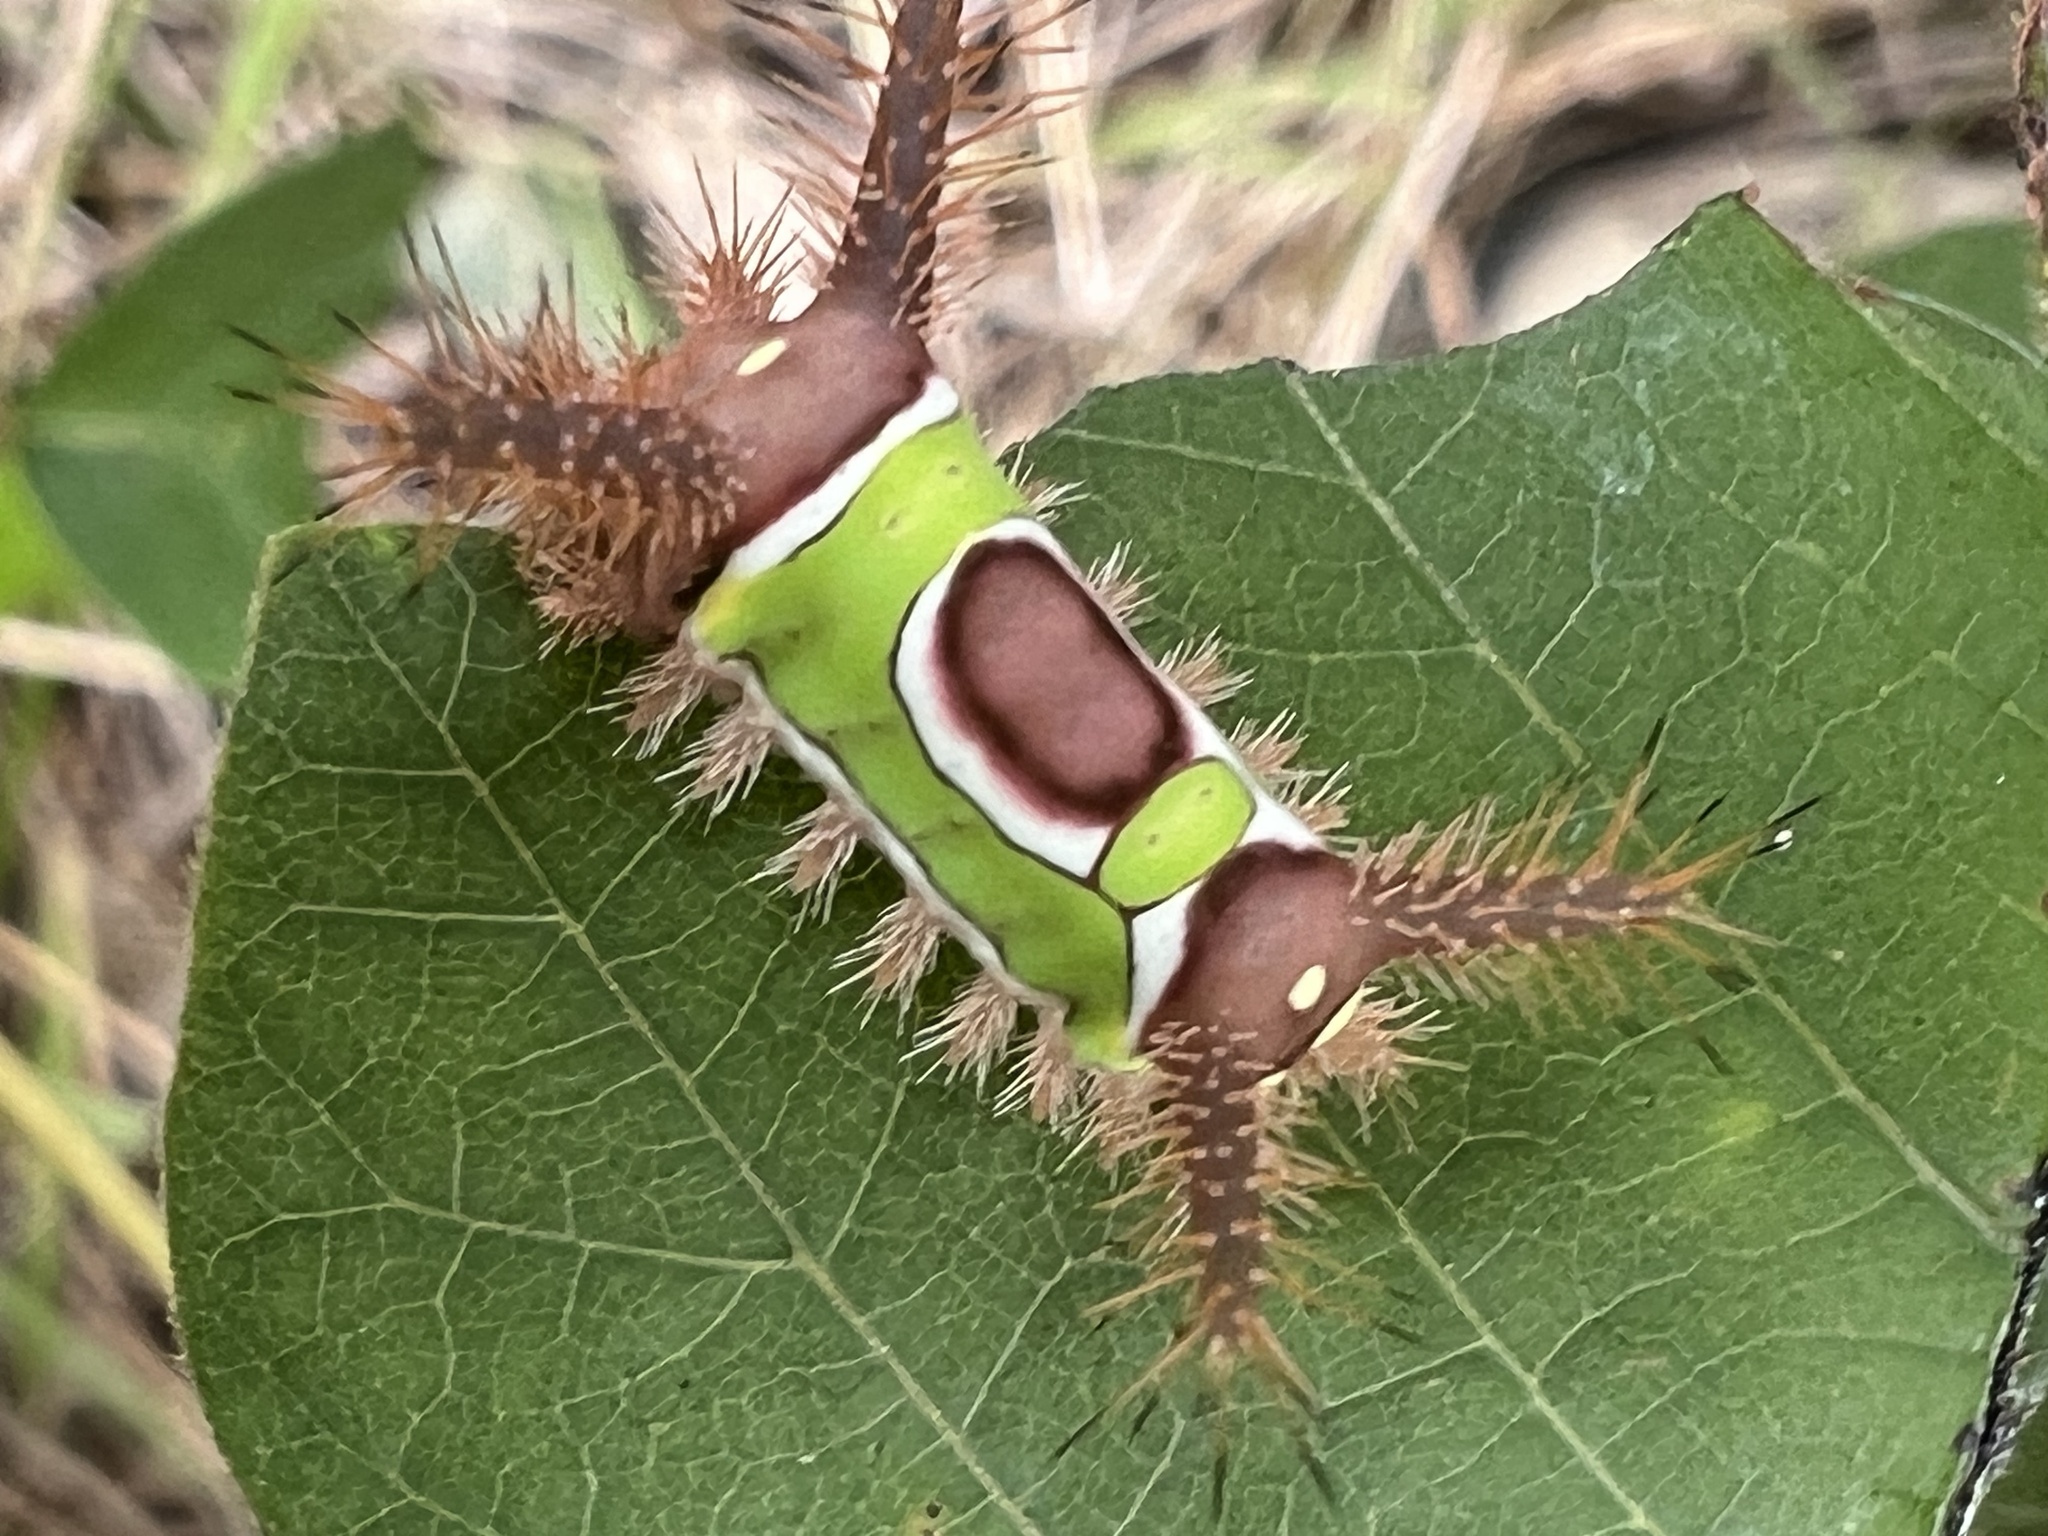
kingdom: Animalia
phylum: Arthropoda
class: Insecta
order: Lepidoptera
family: Limacodidae
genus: Acharia
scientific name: Acharia stimulea
